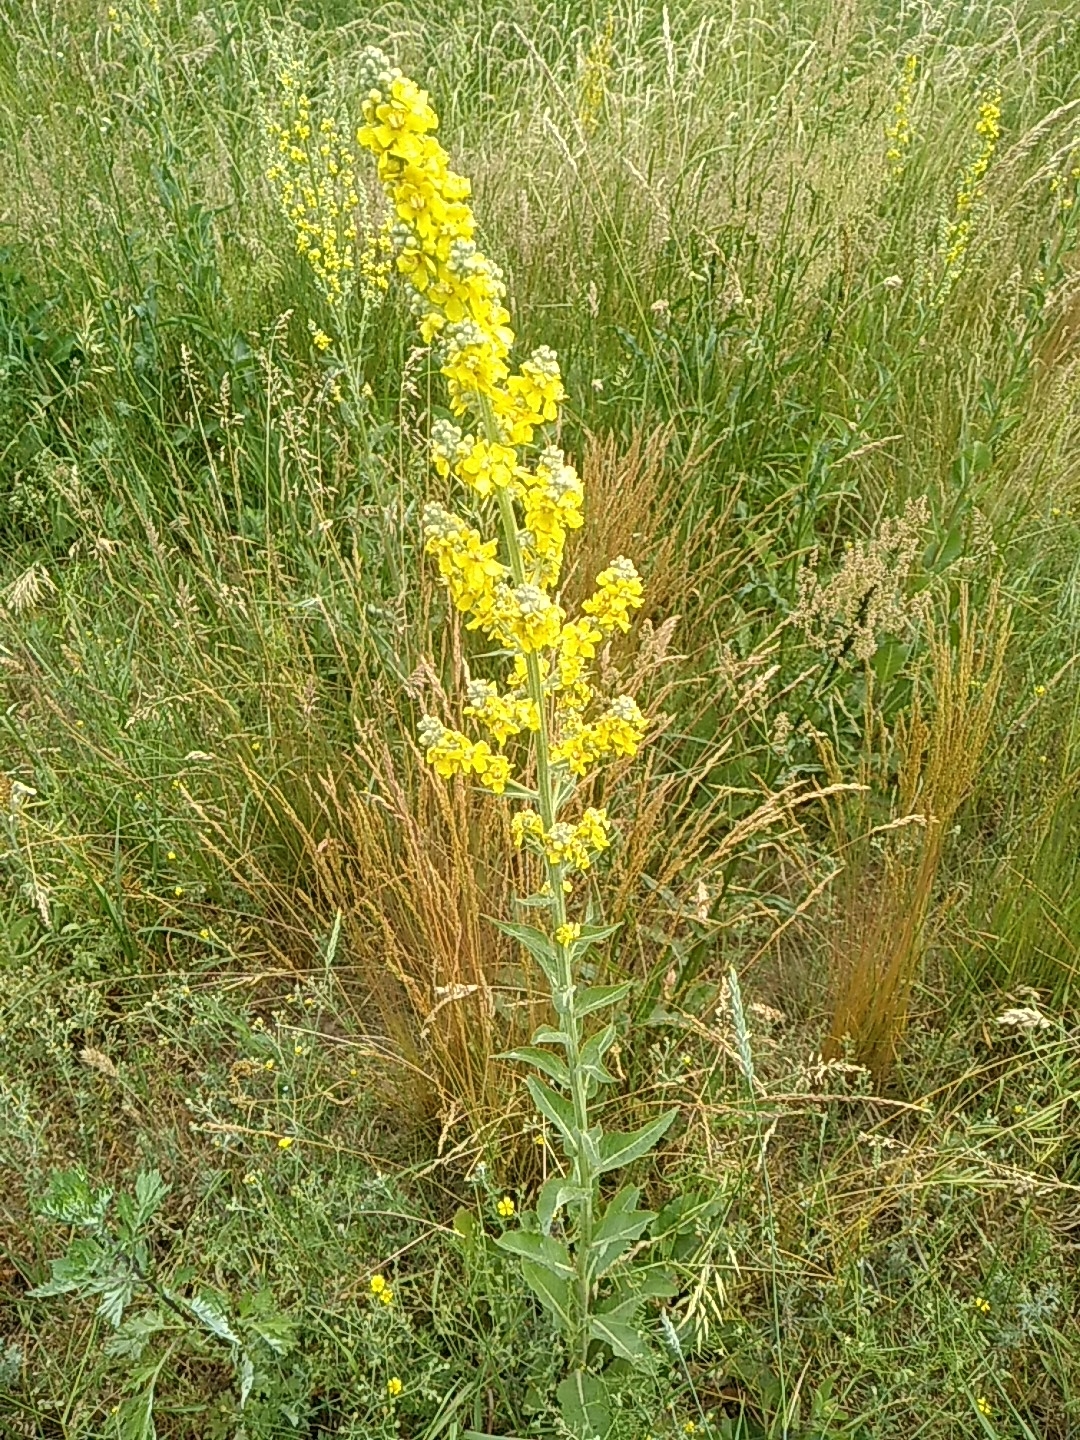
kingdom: Plantae
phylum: Tracheophyta
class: Magnoliopsida
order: Lamiales
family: Scrophulariaceae
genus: Verbascum
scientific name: Verbascum lychnitis
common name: White mullein
